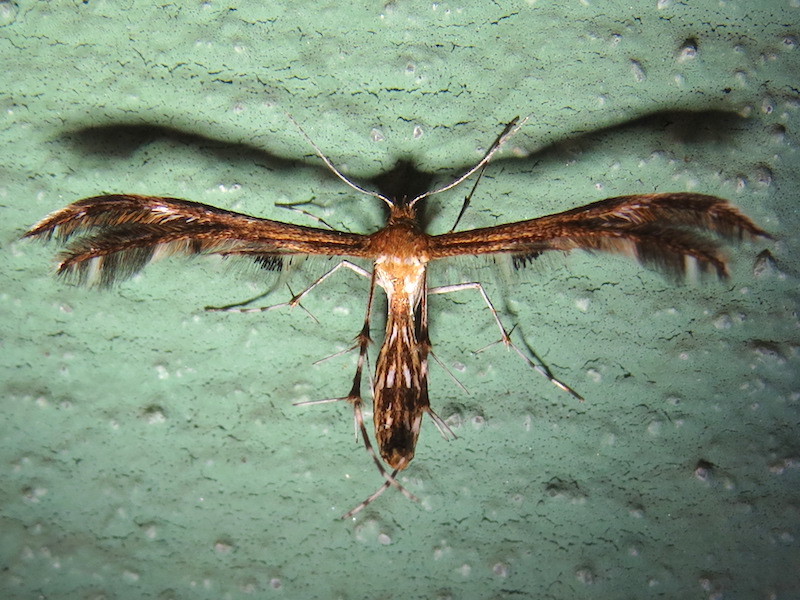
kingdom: Animalia
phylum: Arthropoda
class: Insecta
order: Lepidoptera
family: Pterophoridae
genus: Dejongia
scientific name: Dejongia lobidactylus
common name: Lobed plume moth
